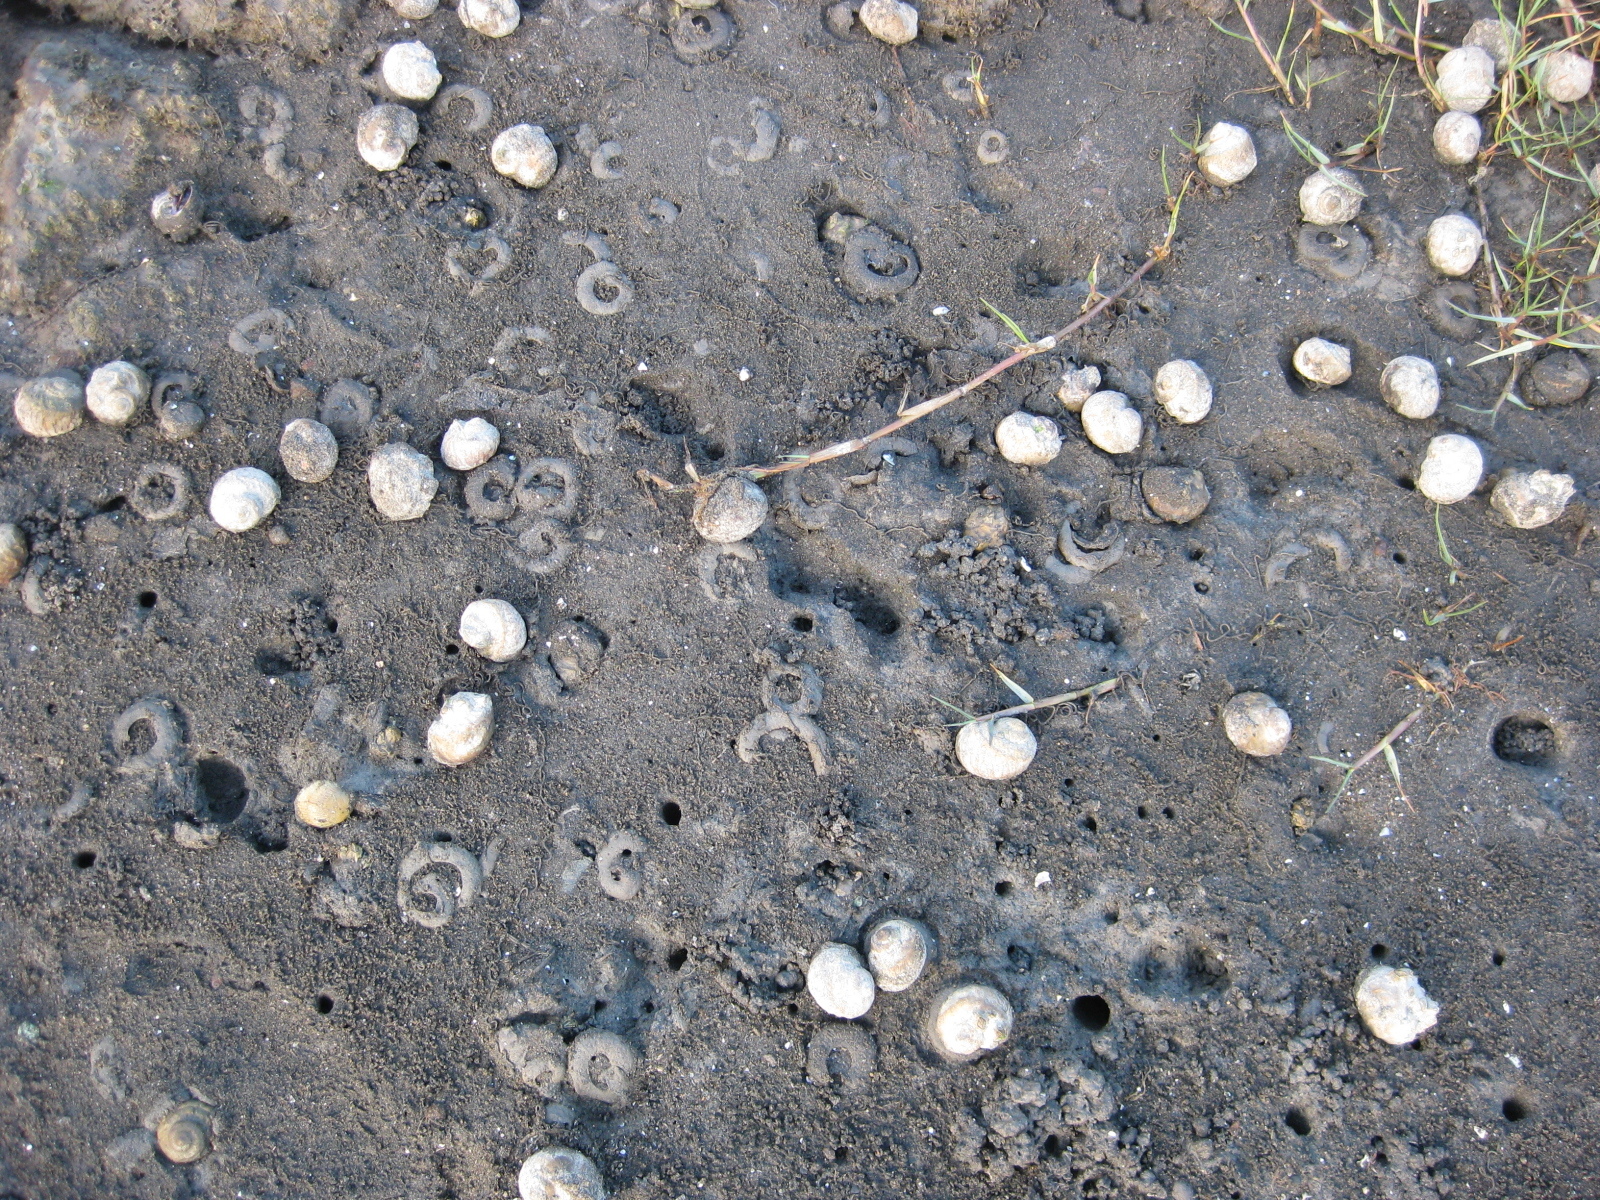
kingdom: Animalia
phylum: Mollusca
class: Gastropoda
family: Amphibolidae
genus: Amphibola
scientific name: Amphibola crenata
